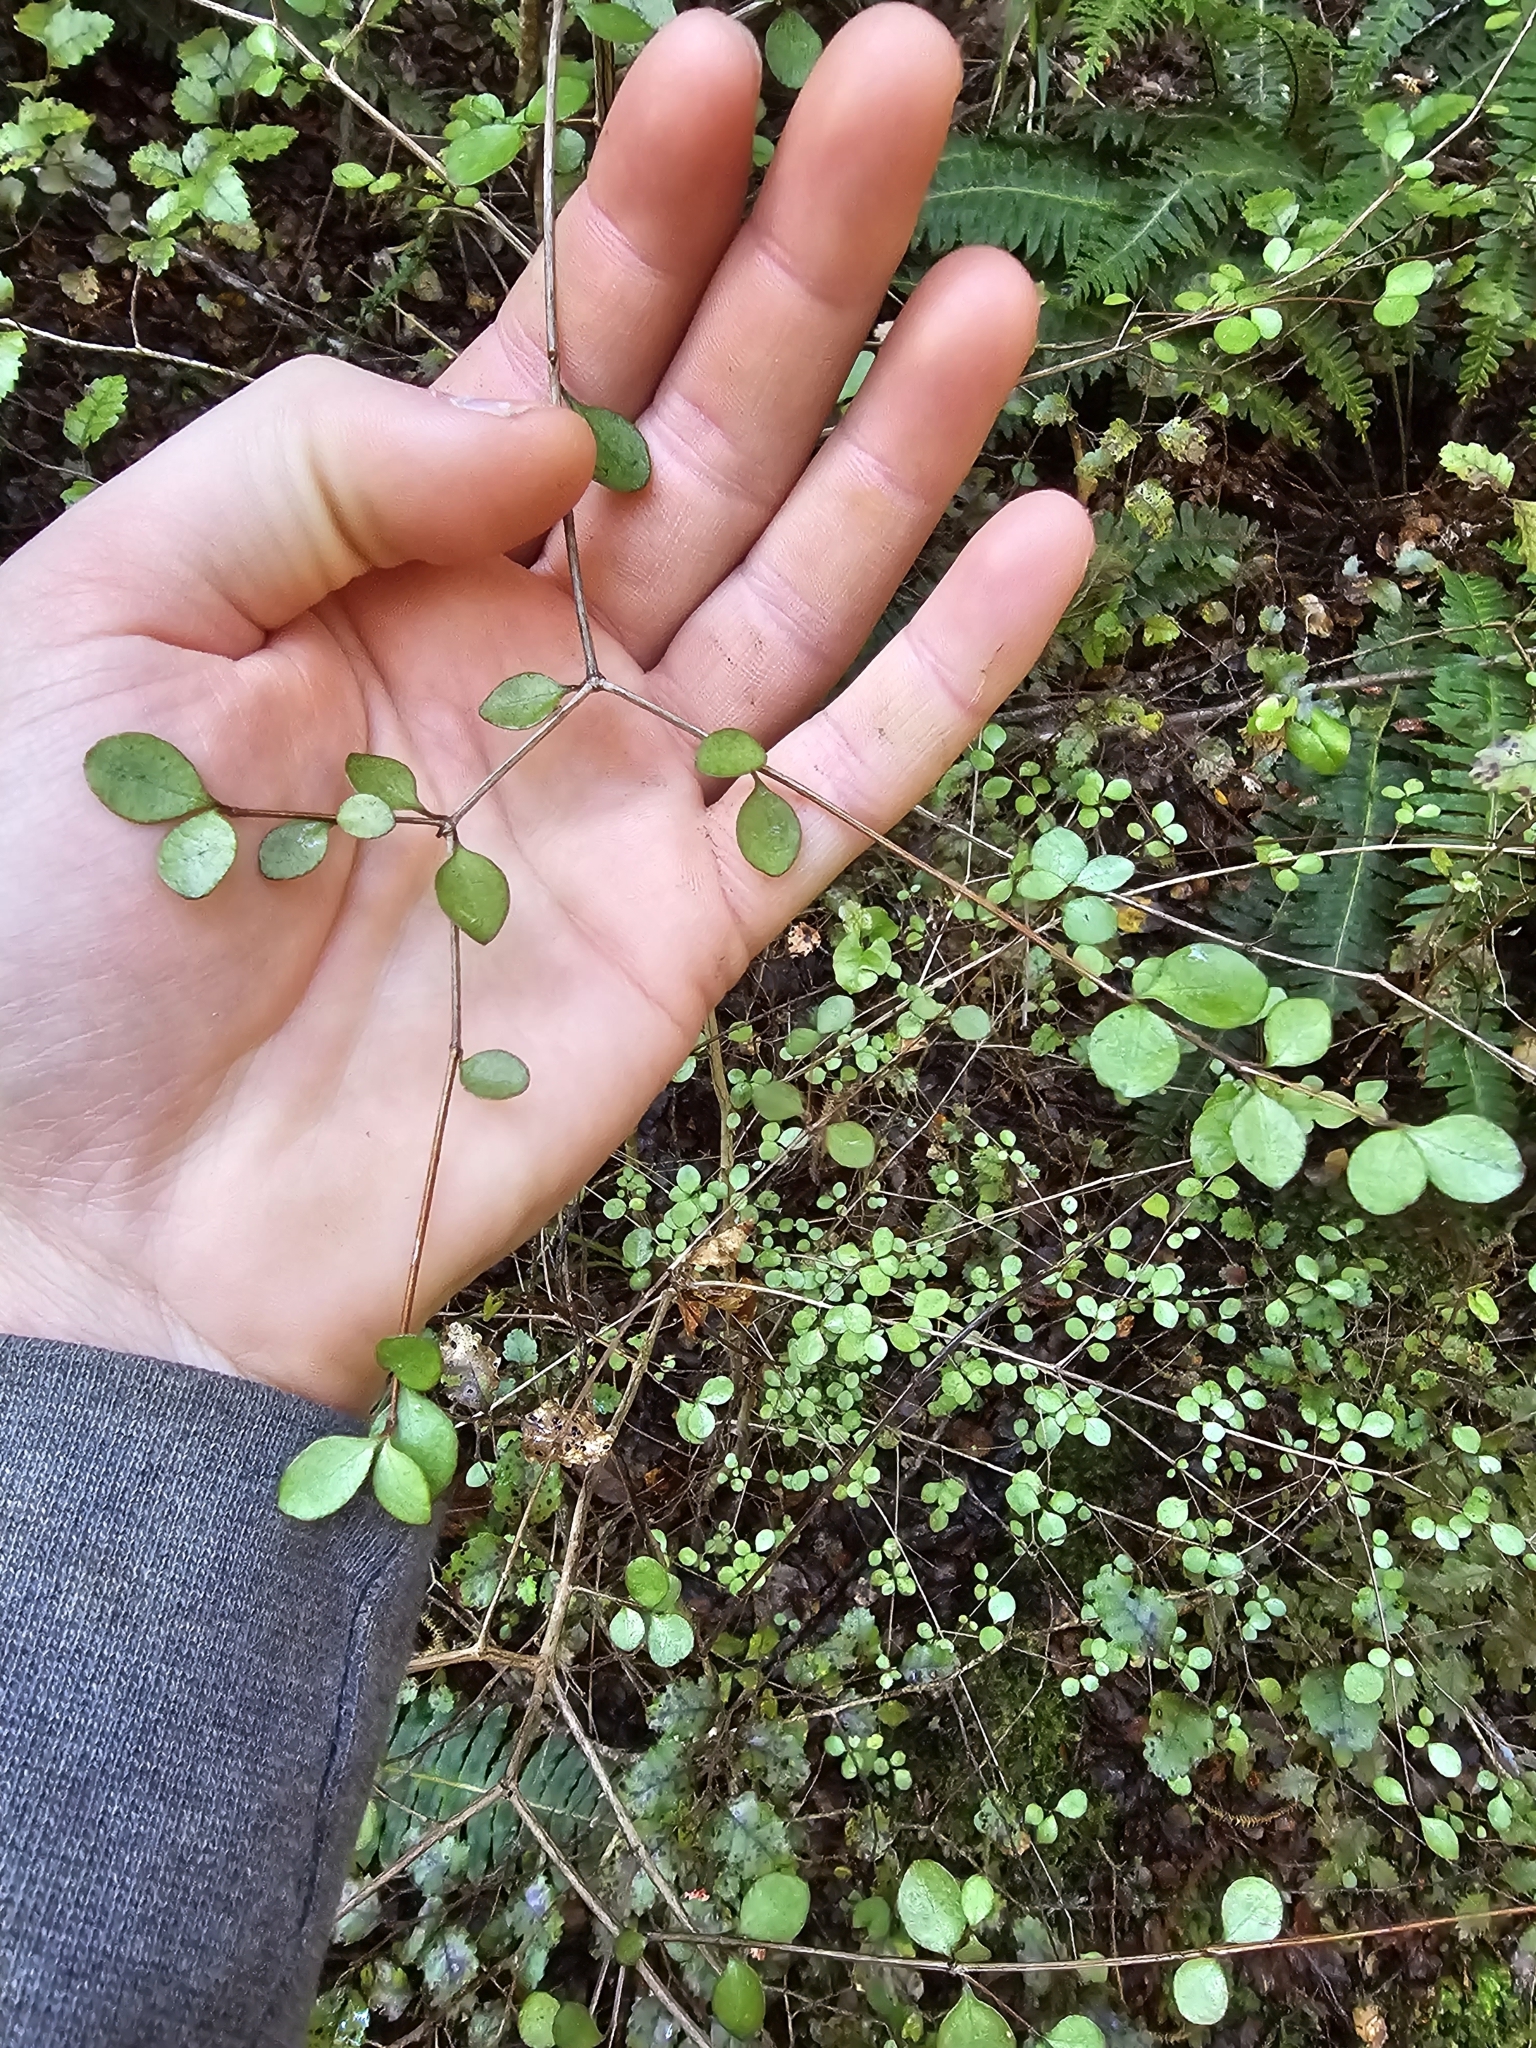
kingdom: Plantae
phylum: Tracheophyta
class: Magnoliopsida
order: Myrtales
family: Myrtaceae
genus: Neomyrtus
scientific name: Neomyrtus pedunculata
